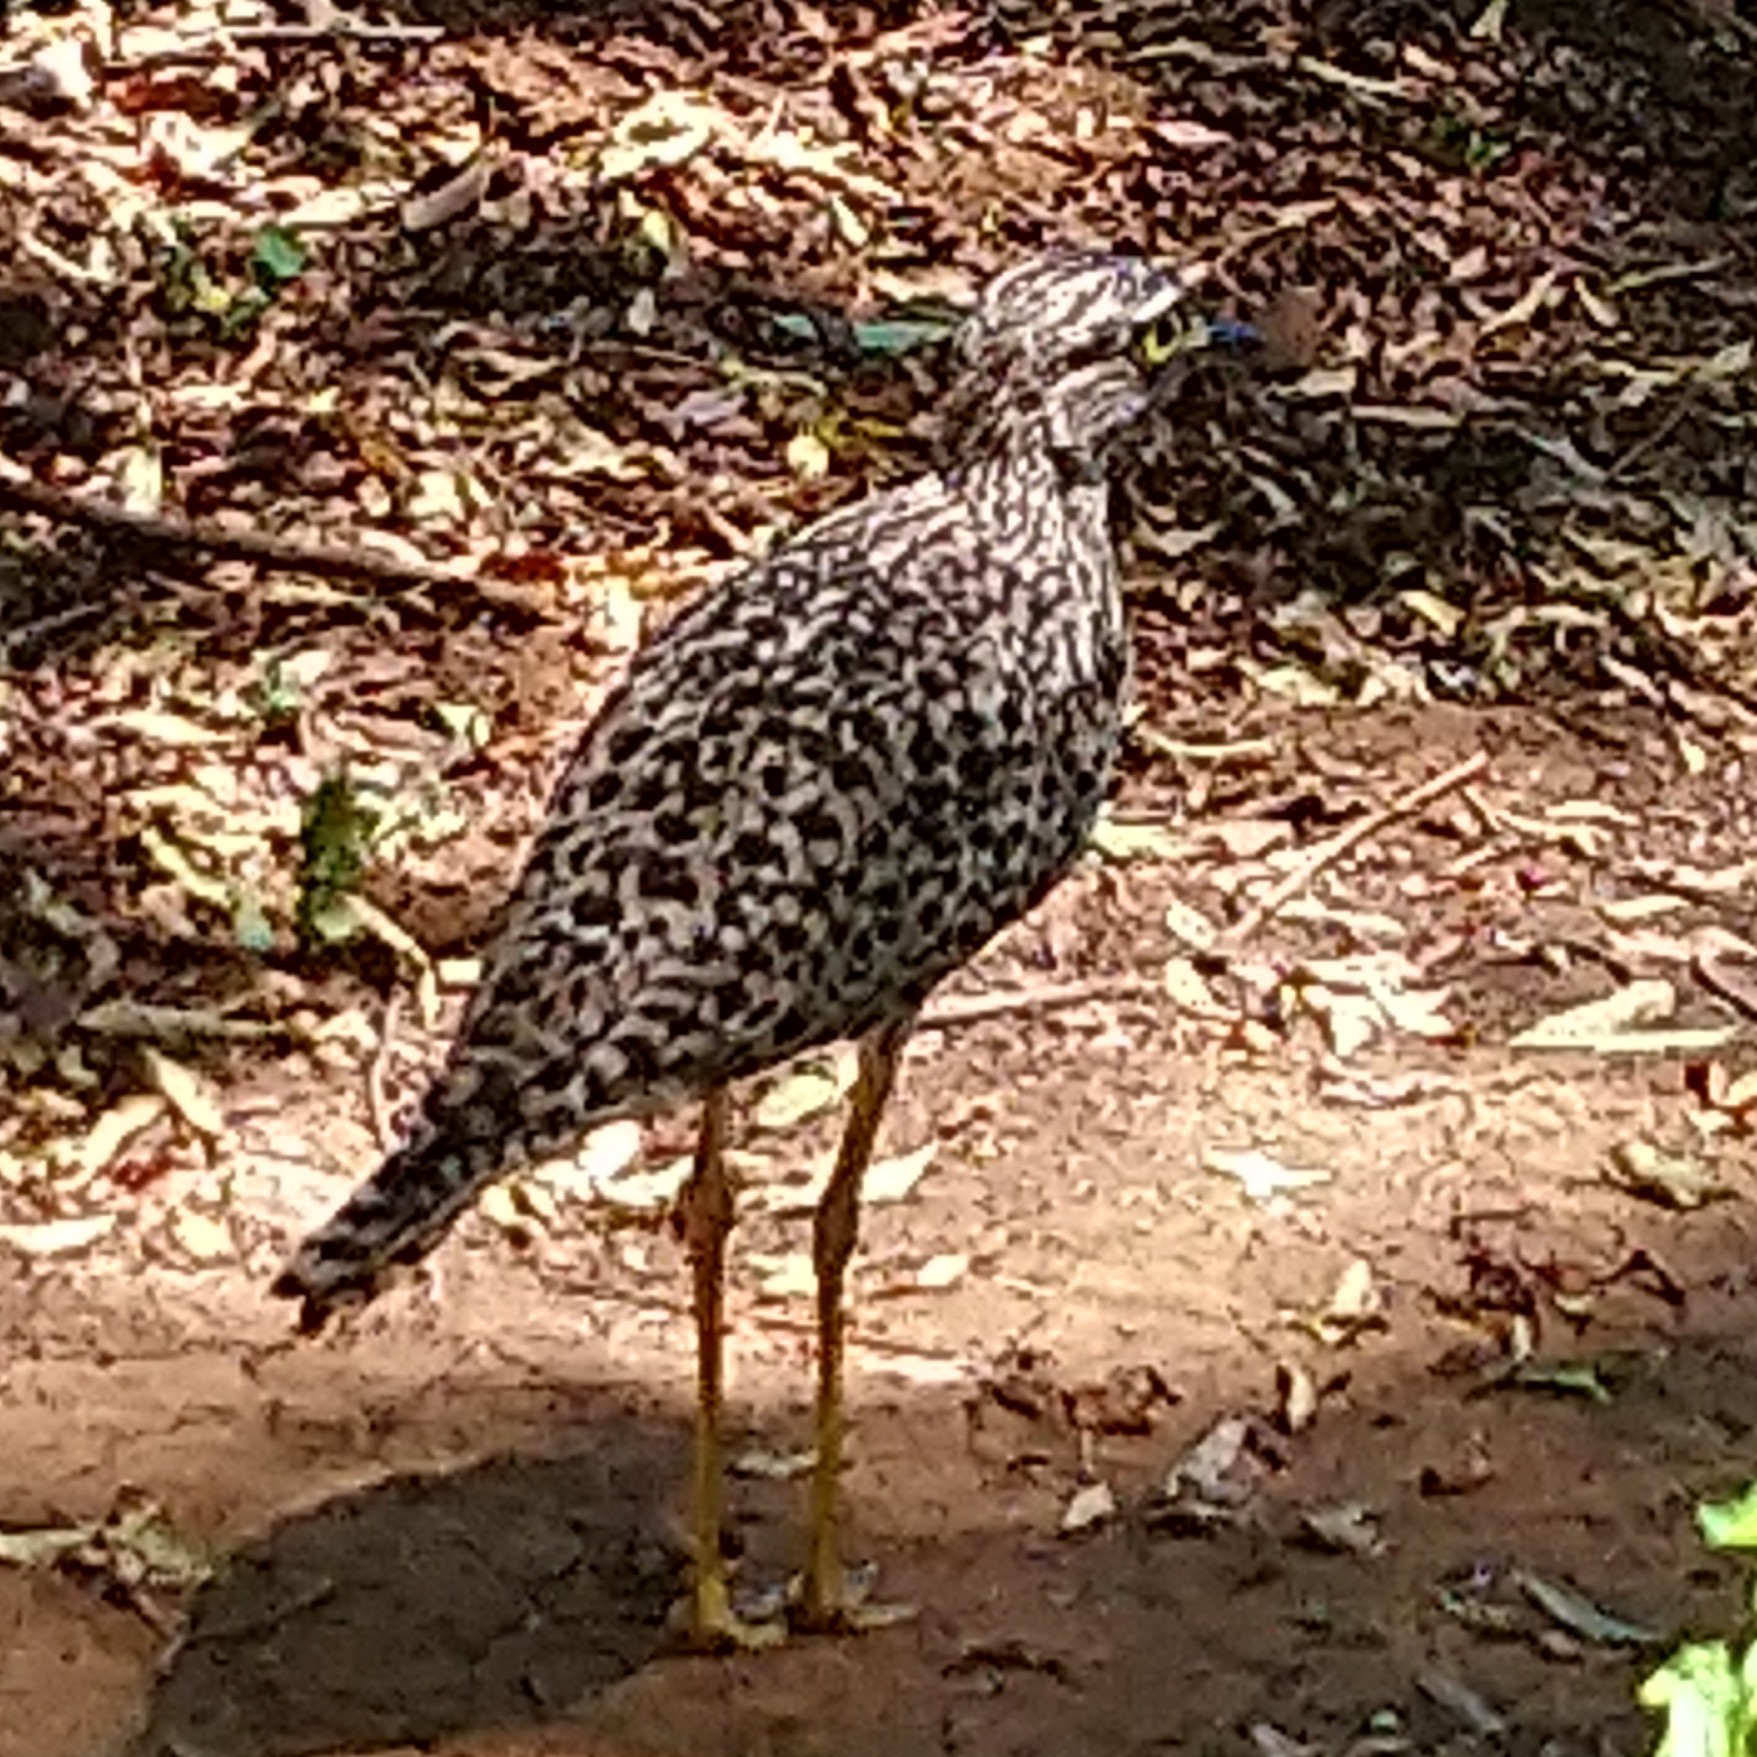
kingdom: Animalia
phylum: Chordata
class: Aves
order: Charadriiformes
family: Burhinidae
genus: Burhinus
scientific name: Burhinus capensis
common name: Spotted thick-knee
